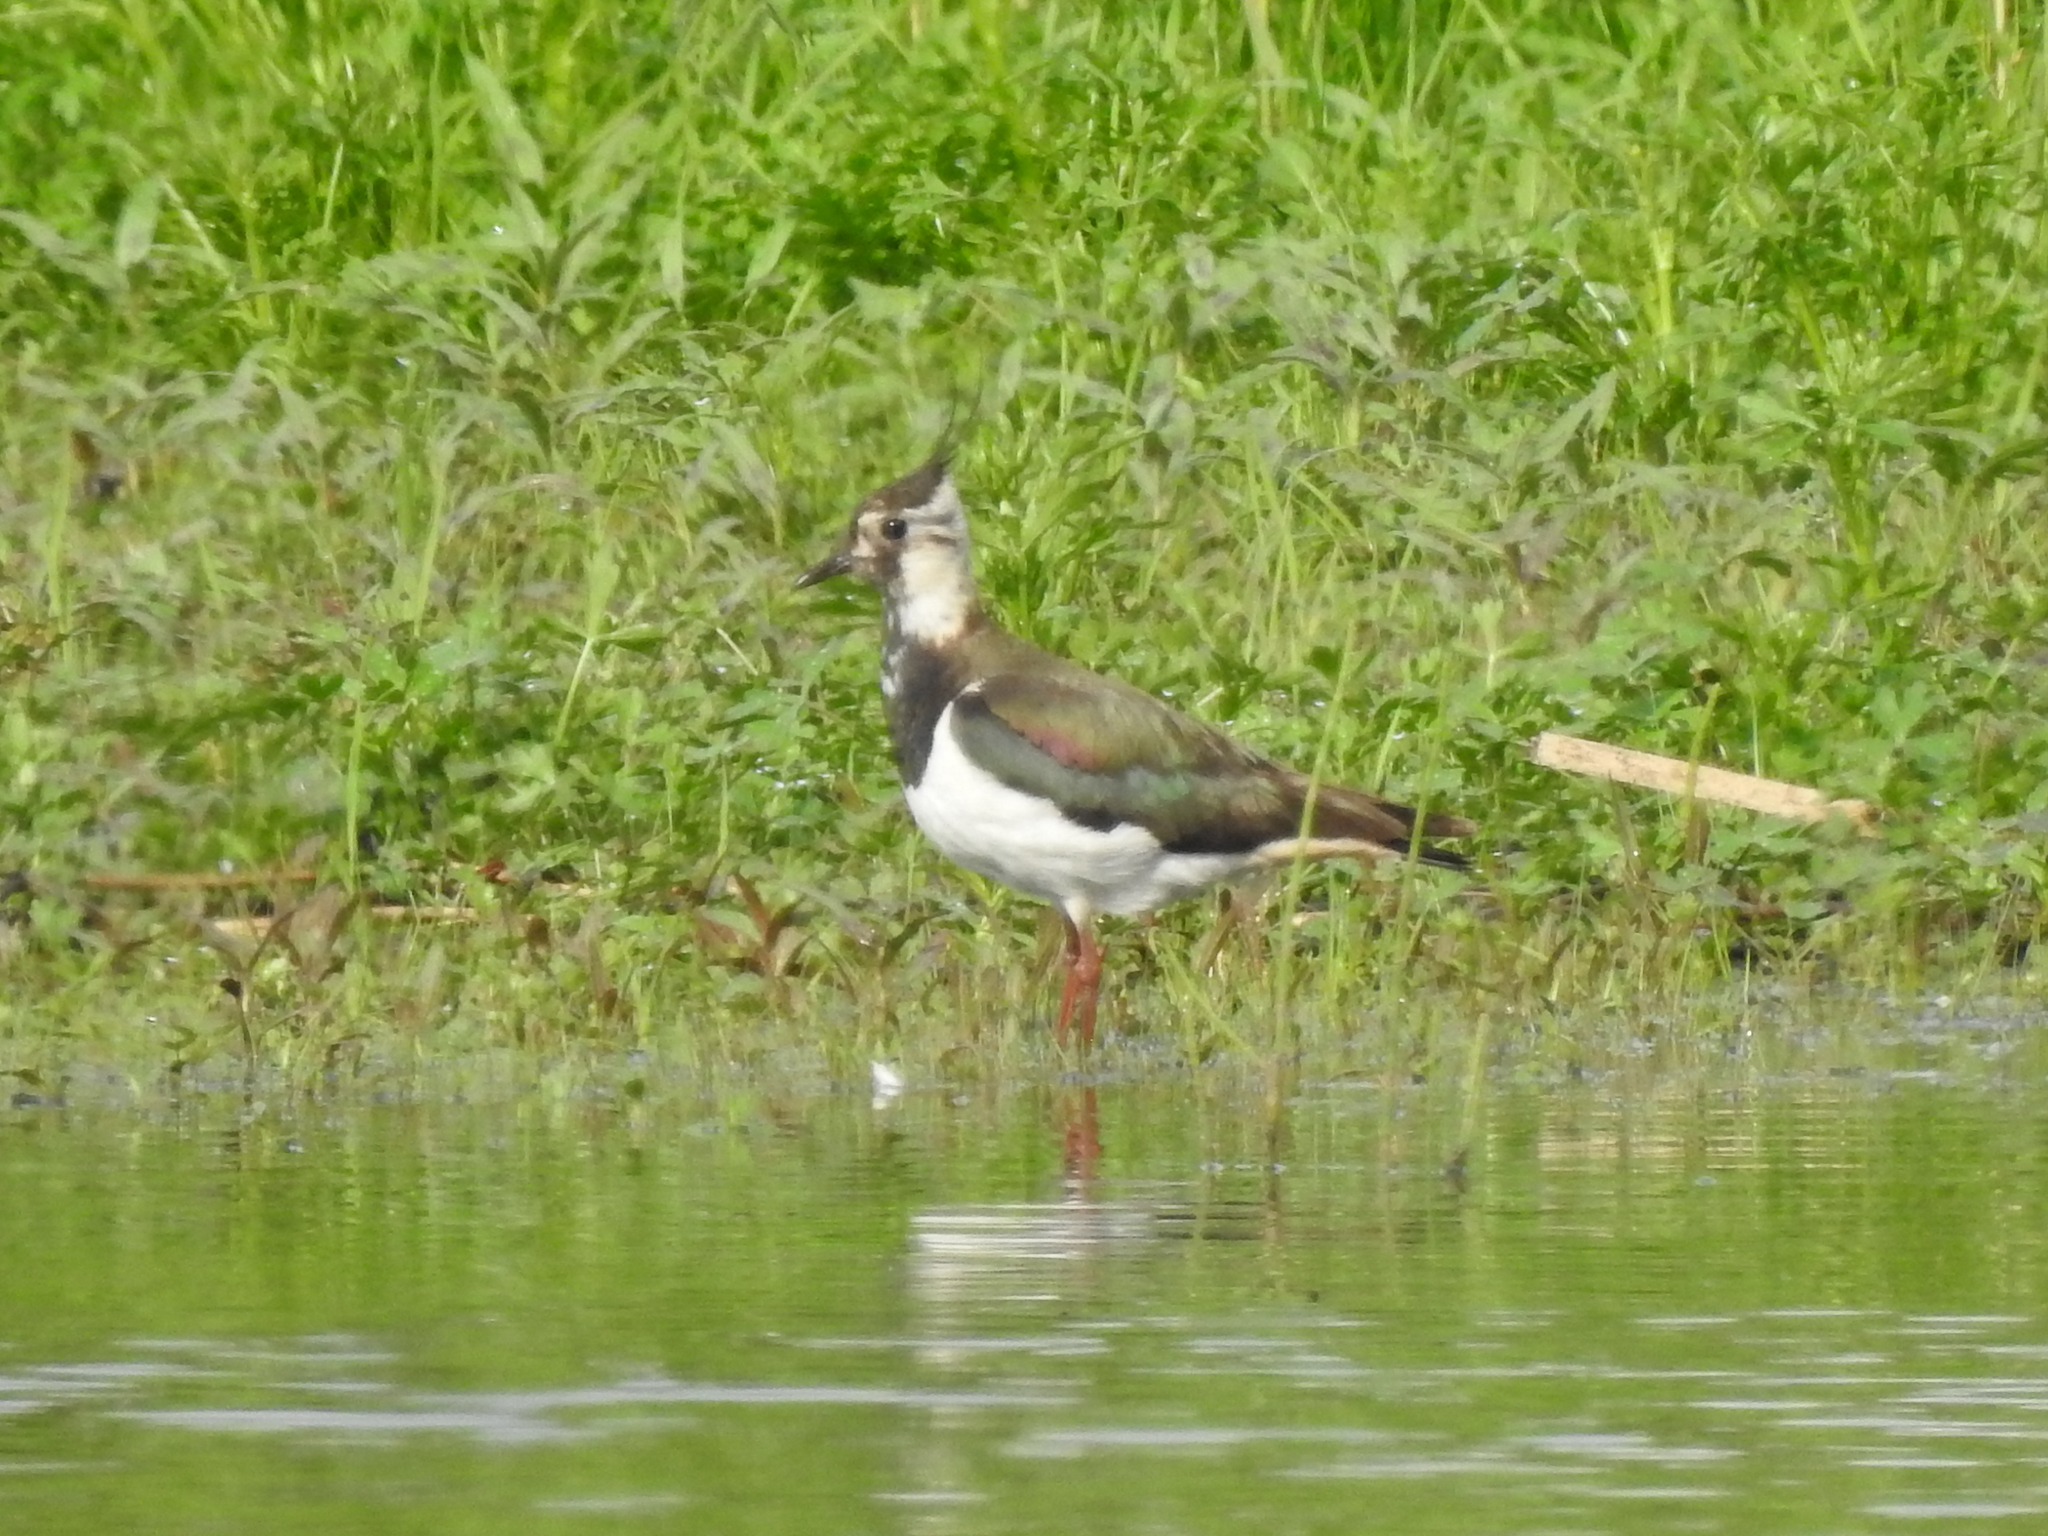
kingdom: Animalia
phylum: Chordata
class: Aves
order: Charadriiformes
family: Charadriidae
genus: Vanellus
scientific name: Vanellus vanellus
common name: Northern lapwing
